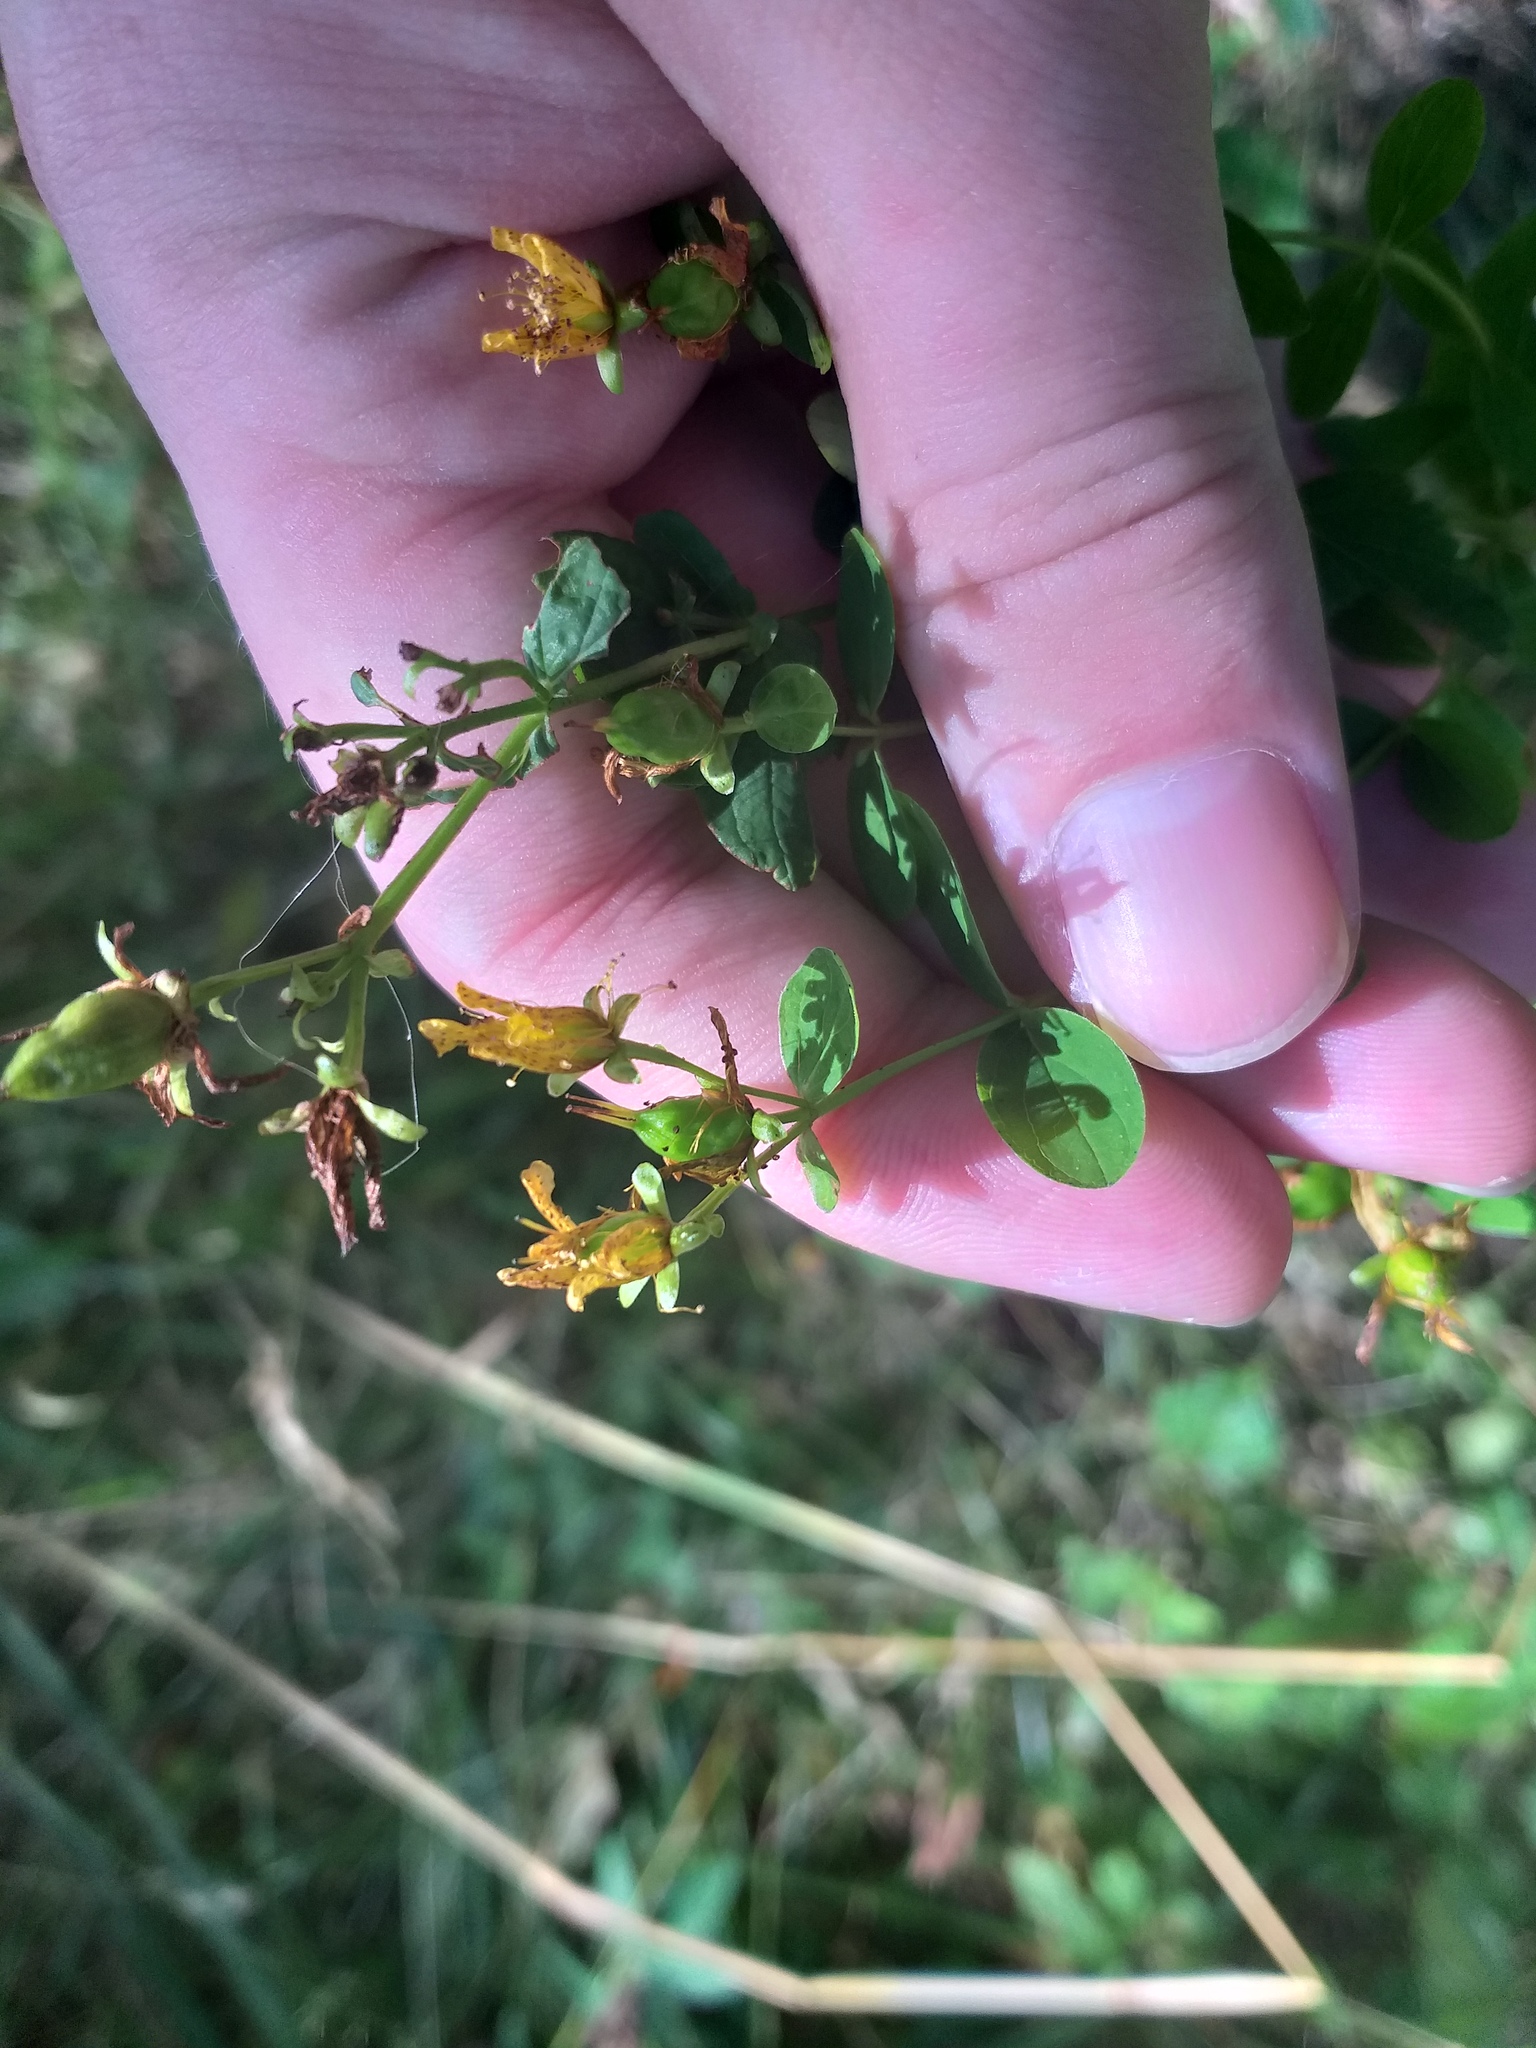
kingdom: Plantae
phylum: Tracheophyta
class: Magnoliopsida
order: Malpighiales
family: Hypericaceae
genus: Hypericum
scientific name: Hypericum maculatum
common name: Imperforate st. john's-wort
